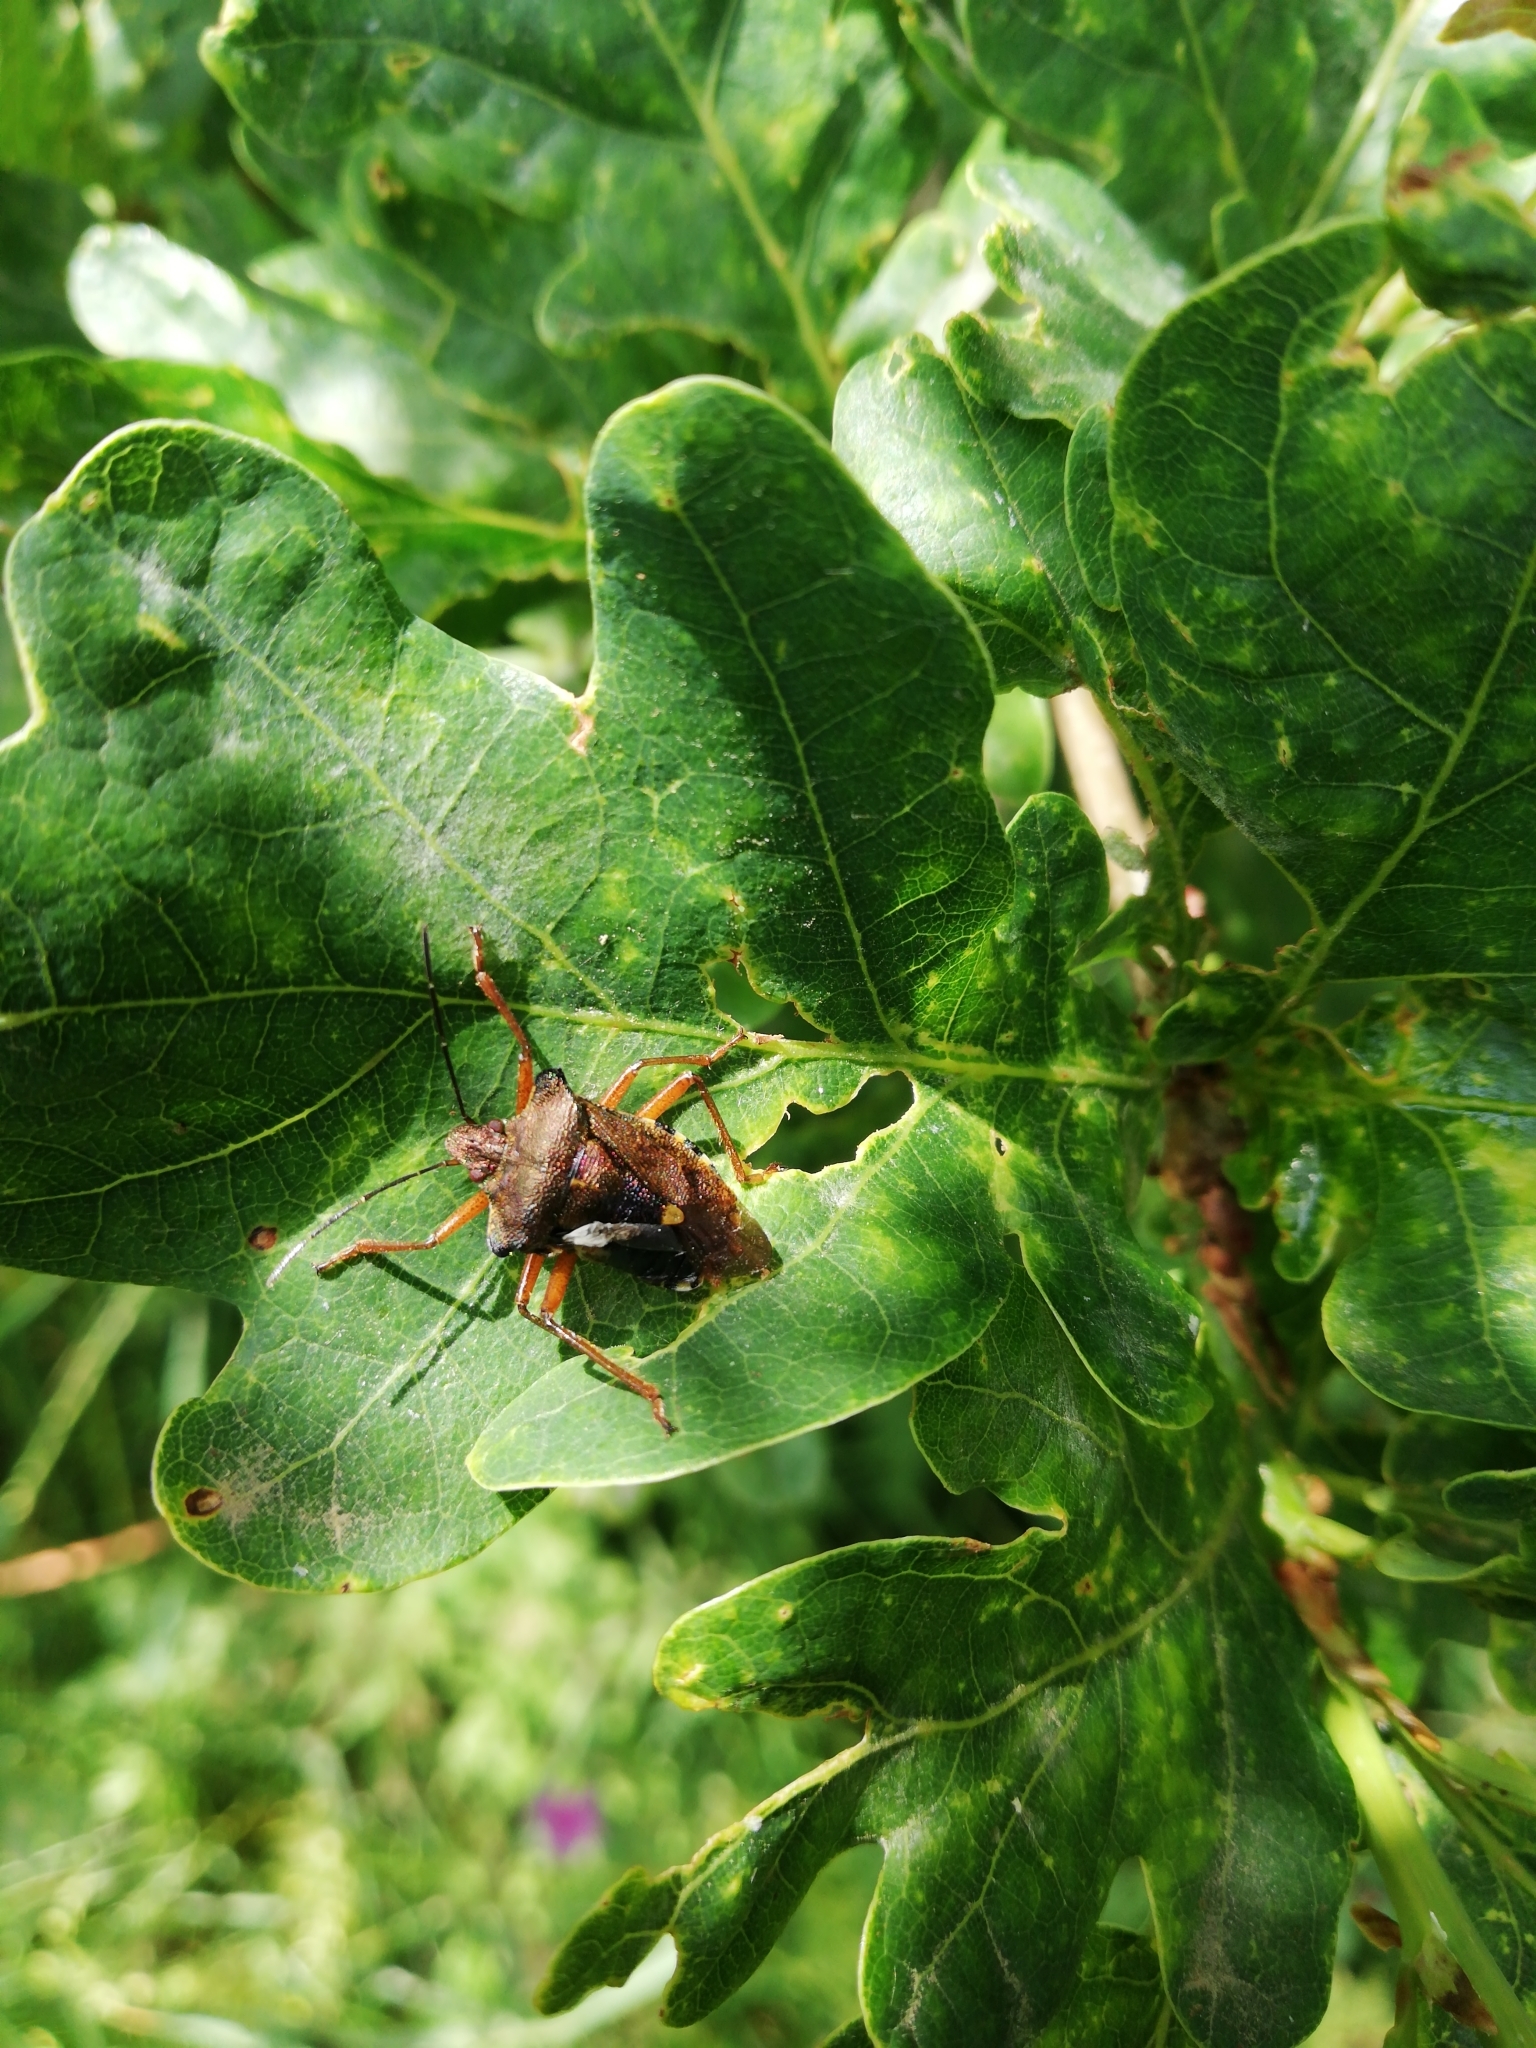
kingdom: Animalia
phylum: Arthropoda
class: Insecta
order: Hemiptera
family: Pentatomidae
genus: Pentatoma
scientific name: Pentatoma rufipes
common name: Forest bug
